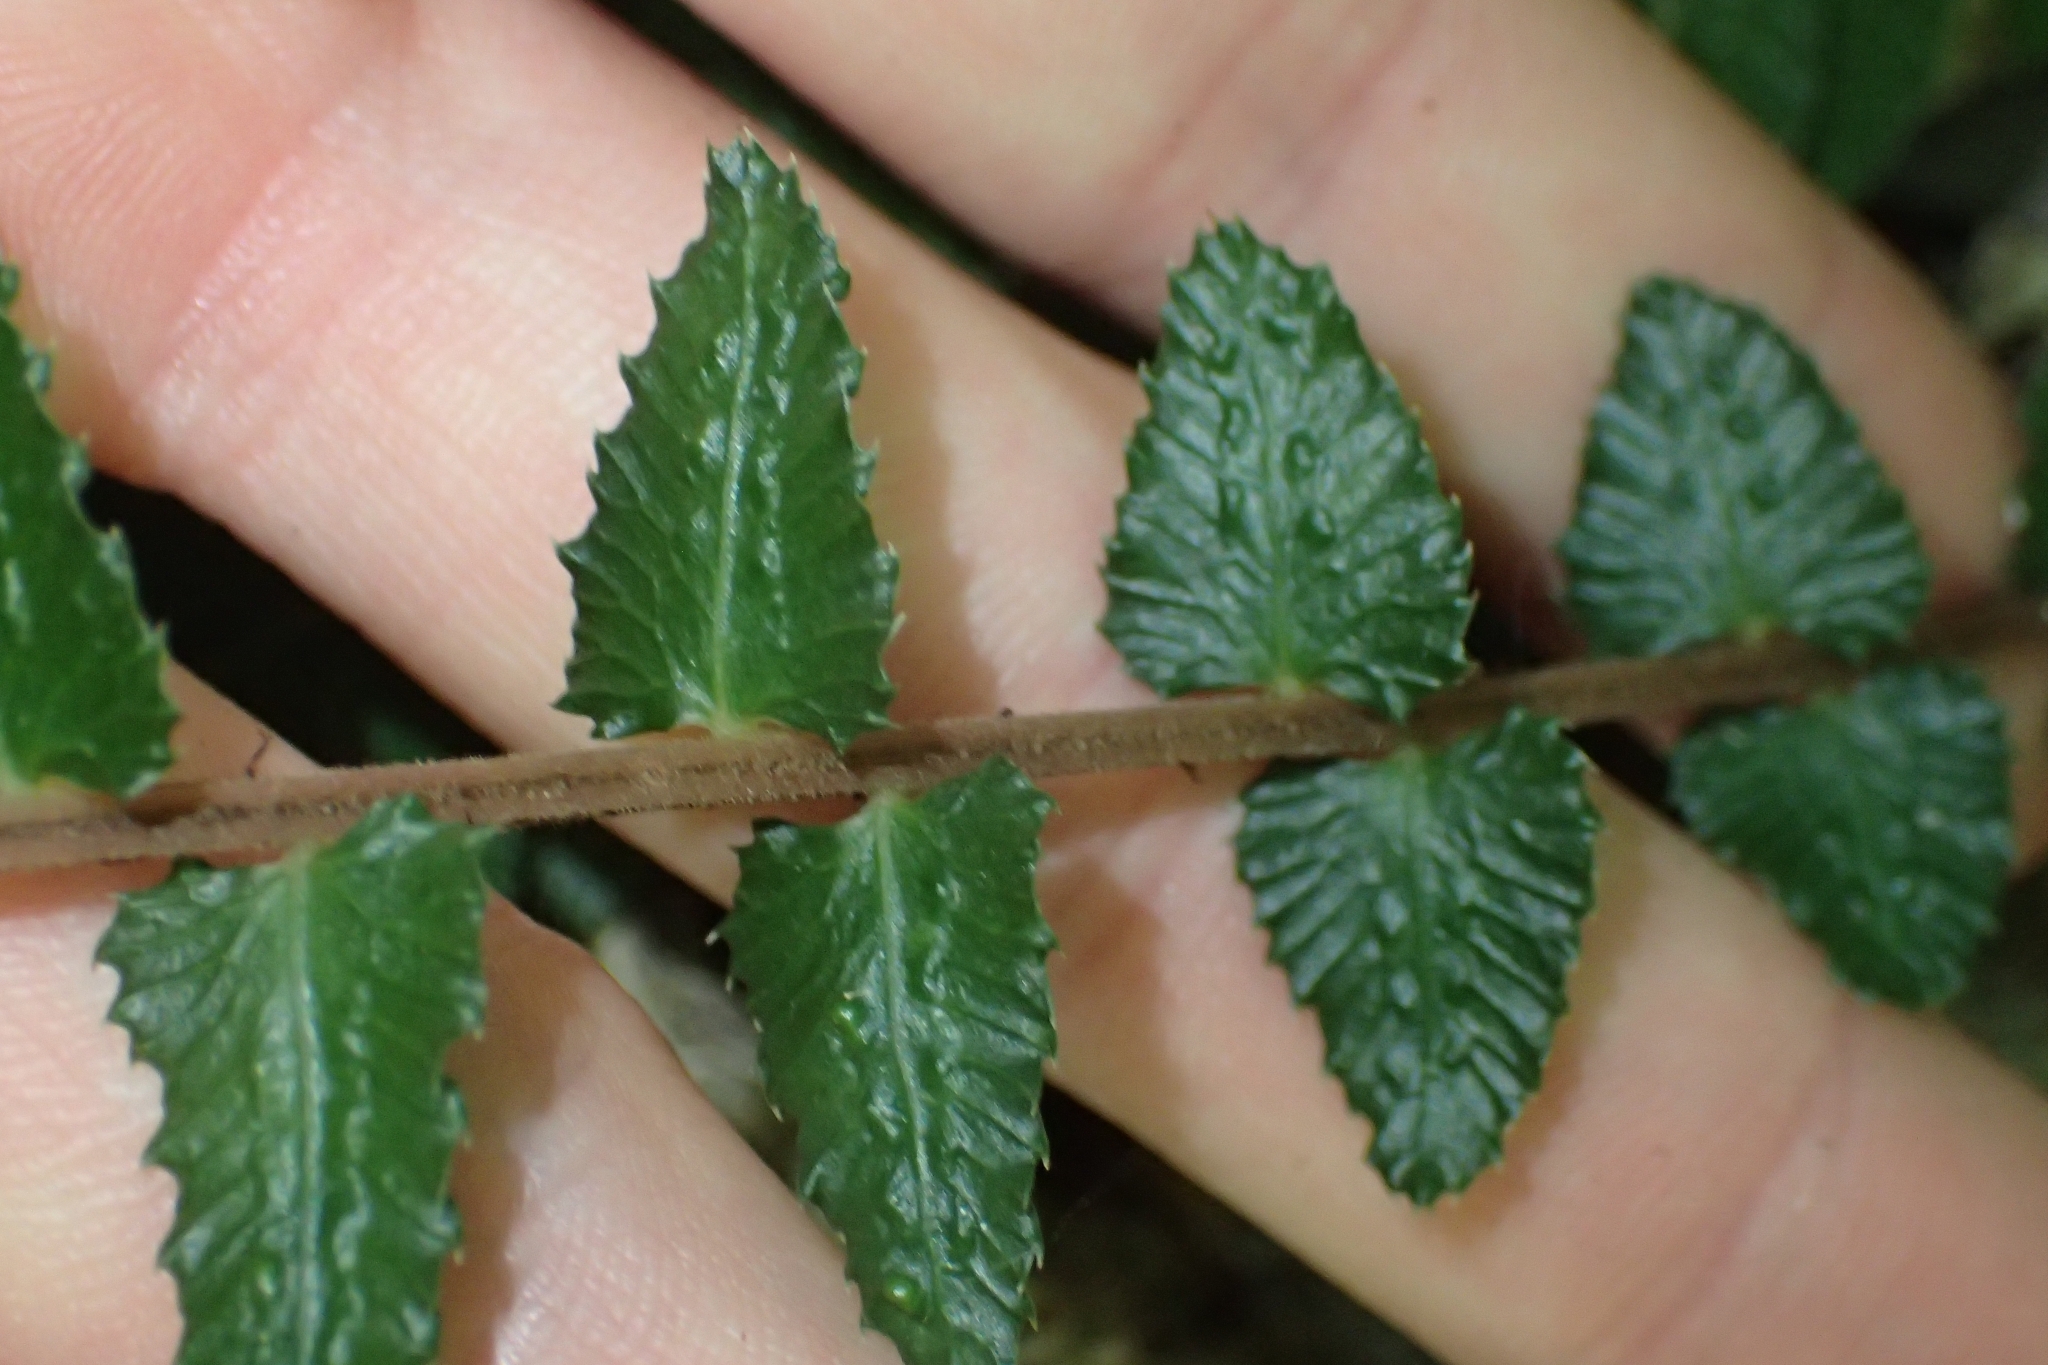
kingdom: Plantae
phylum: Tracheophyta
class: Polypodiopsida
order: Polypodiales
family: Blechnaceae
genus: Doodia
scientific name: Doodia australis
